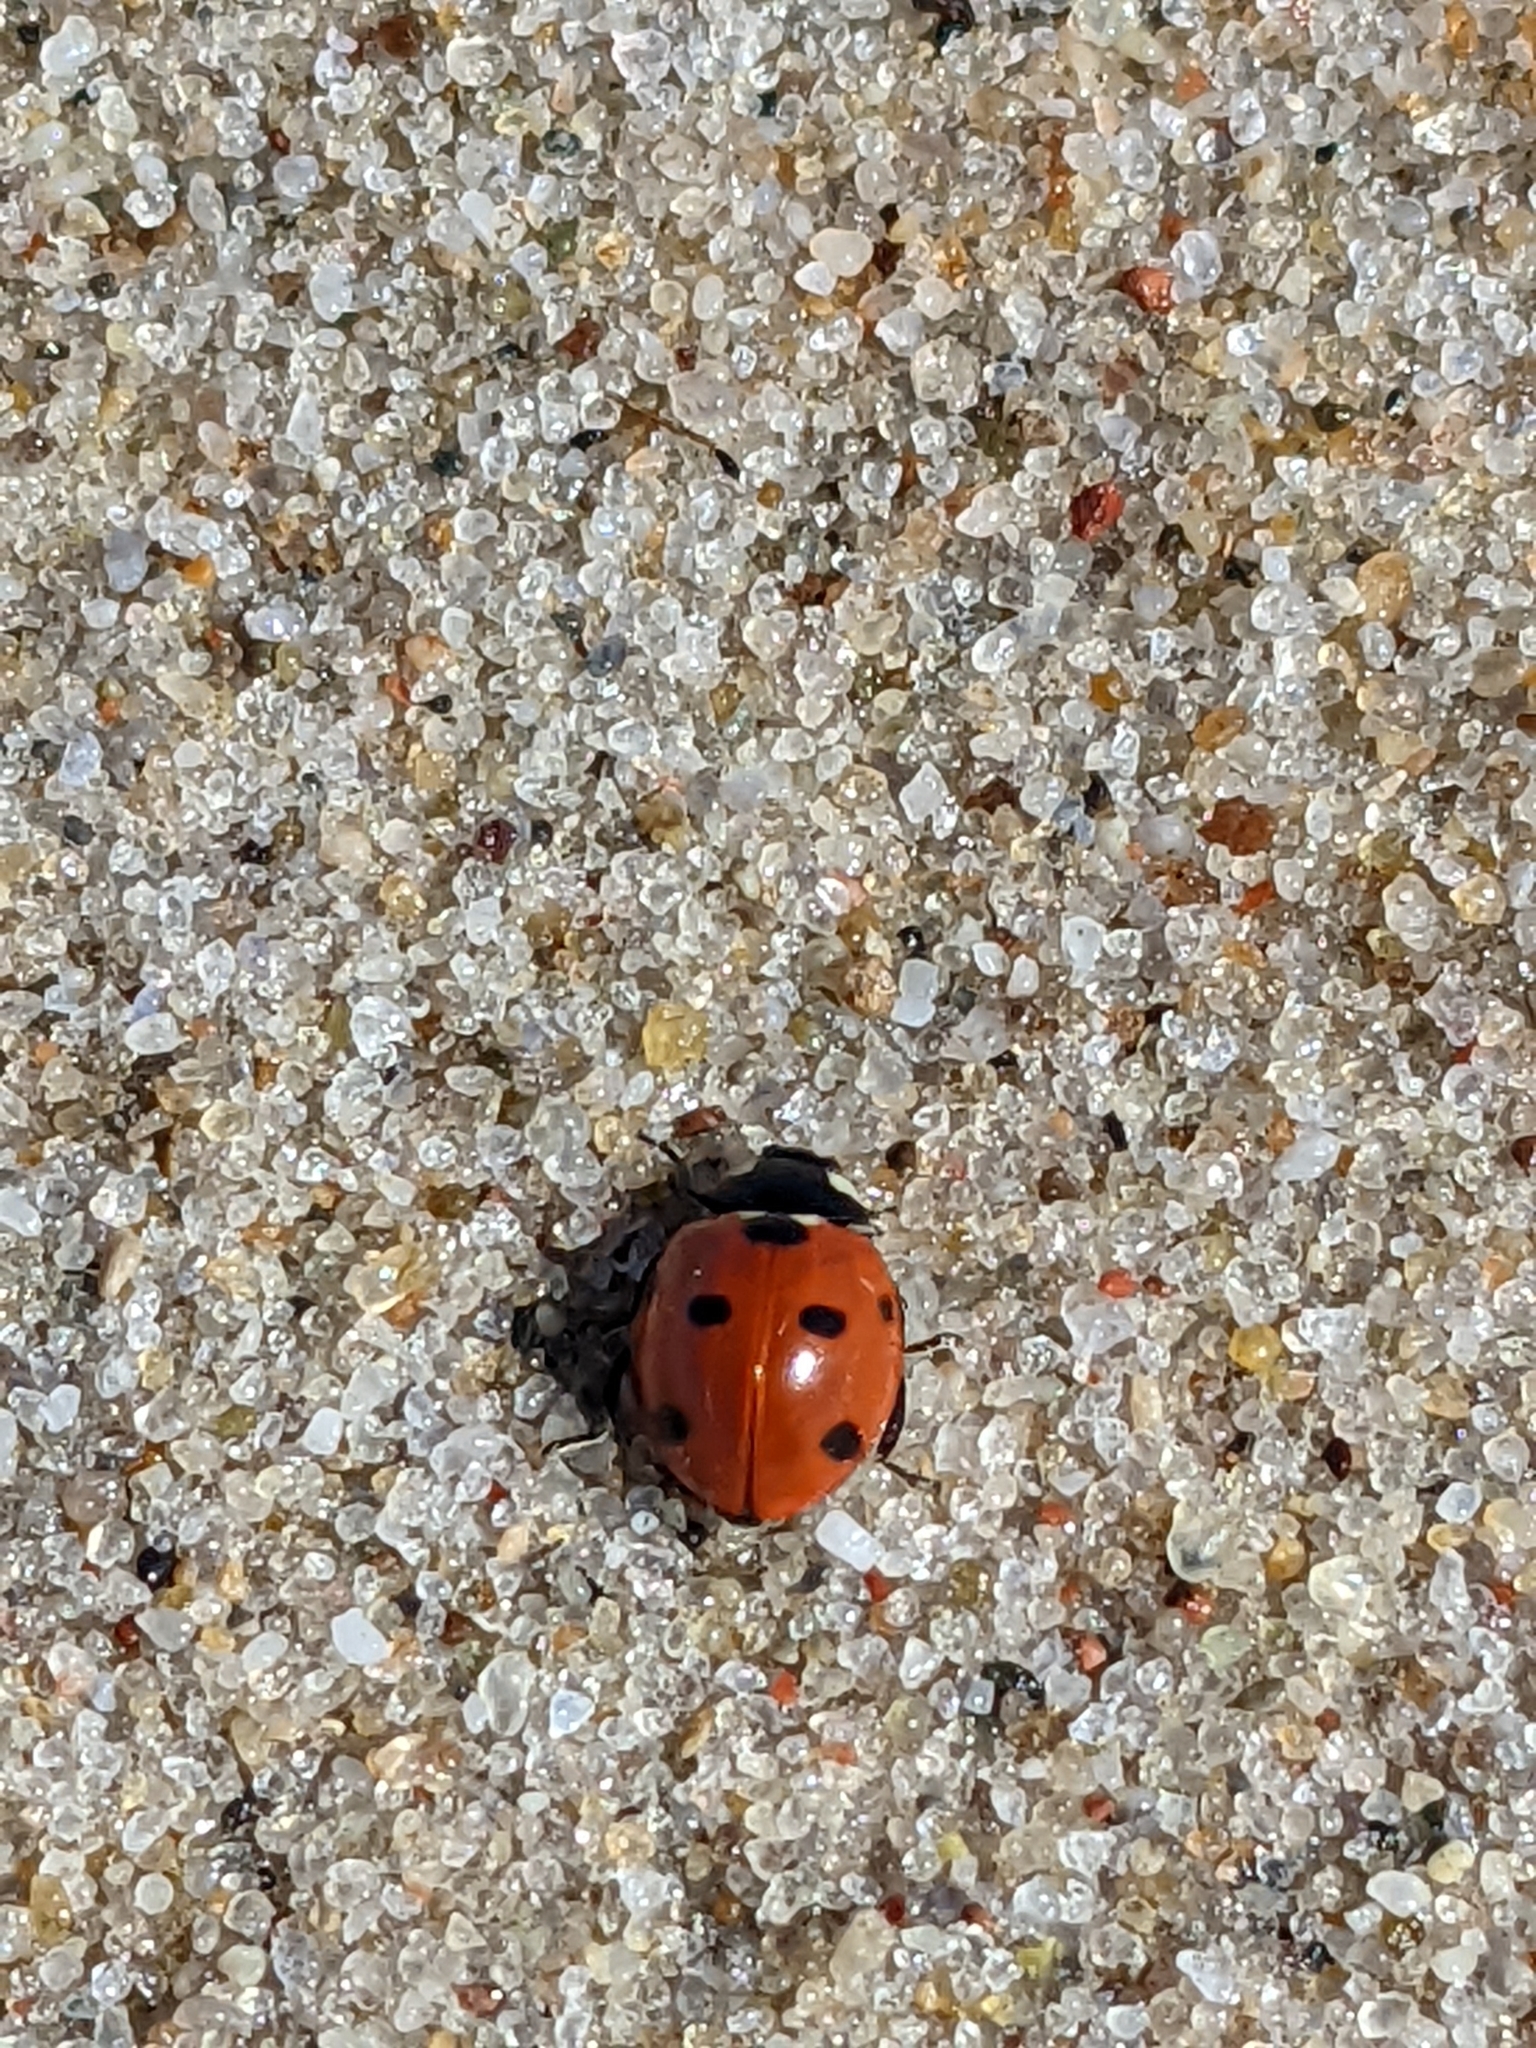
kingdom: Animalia
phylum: Arthropoda
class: Insecta
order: Coleoptera
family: Coccinellidae
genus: Coccinella
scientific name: Coccinella septempunctata
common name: Sevenspotted lady beetle
